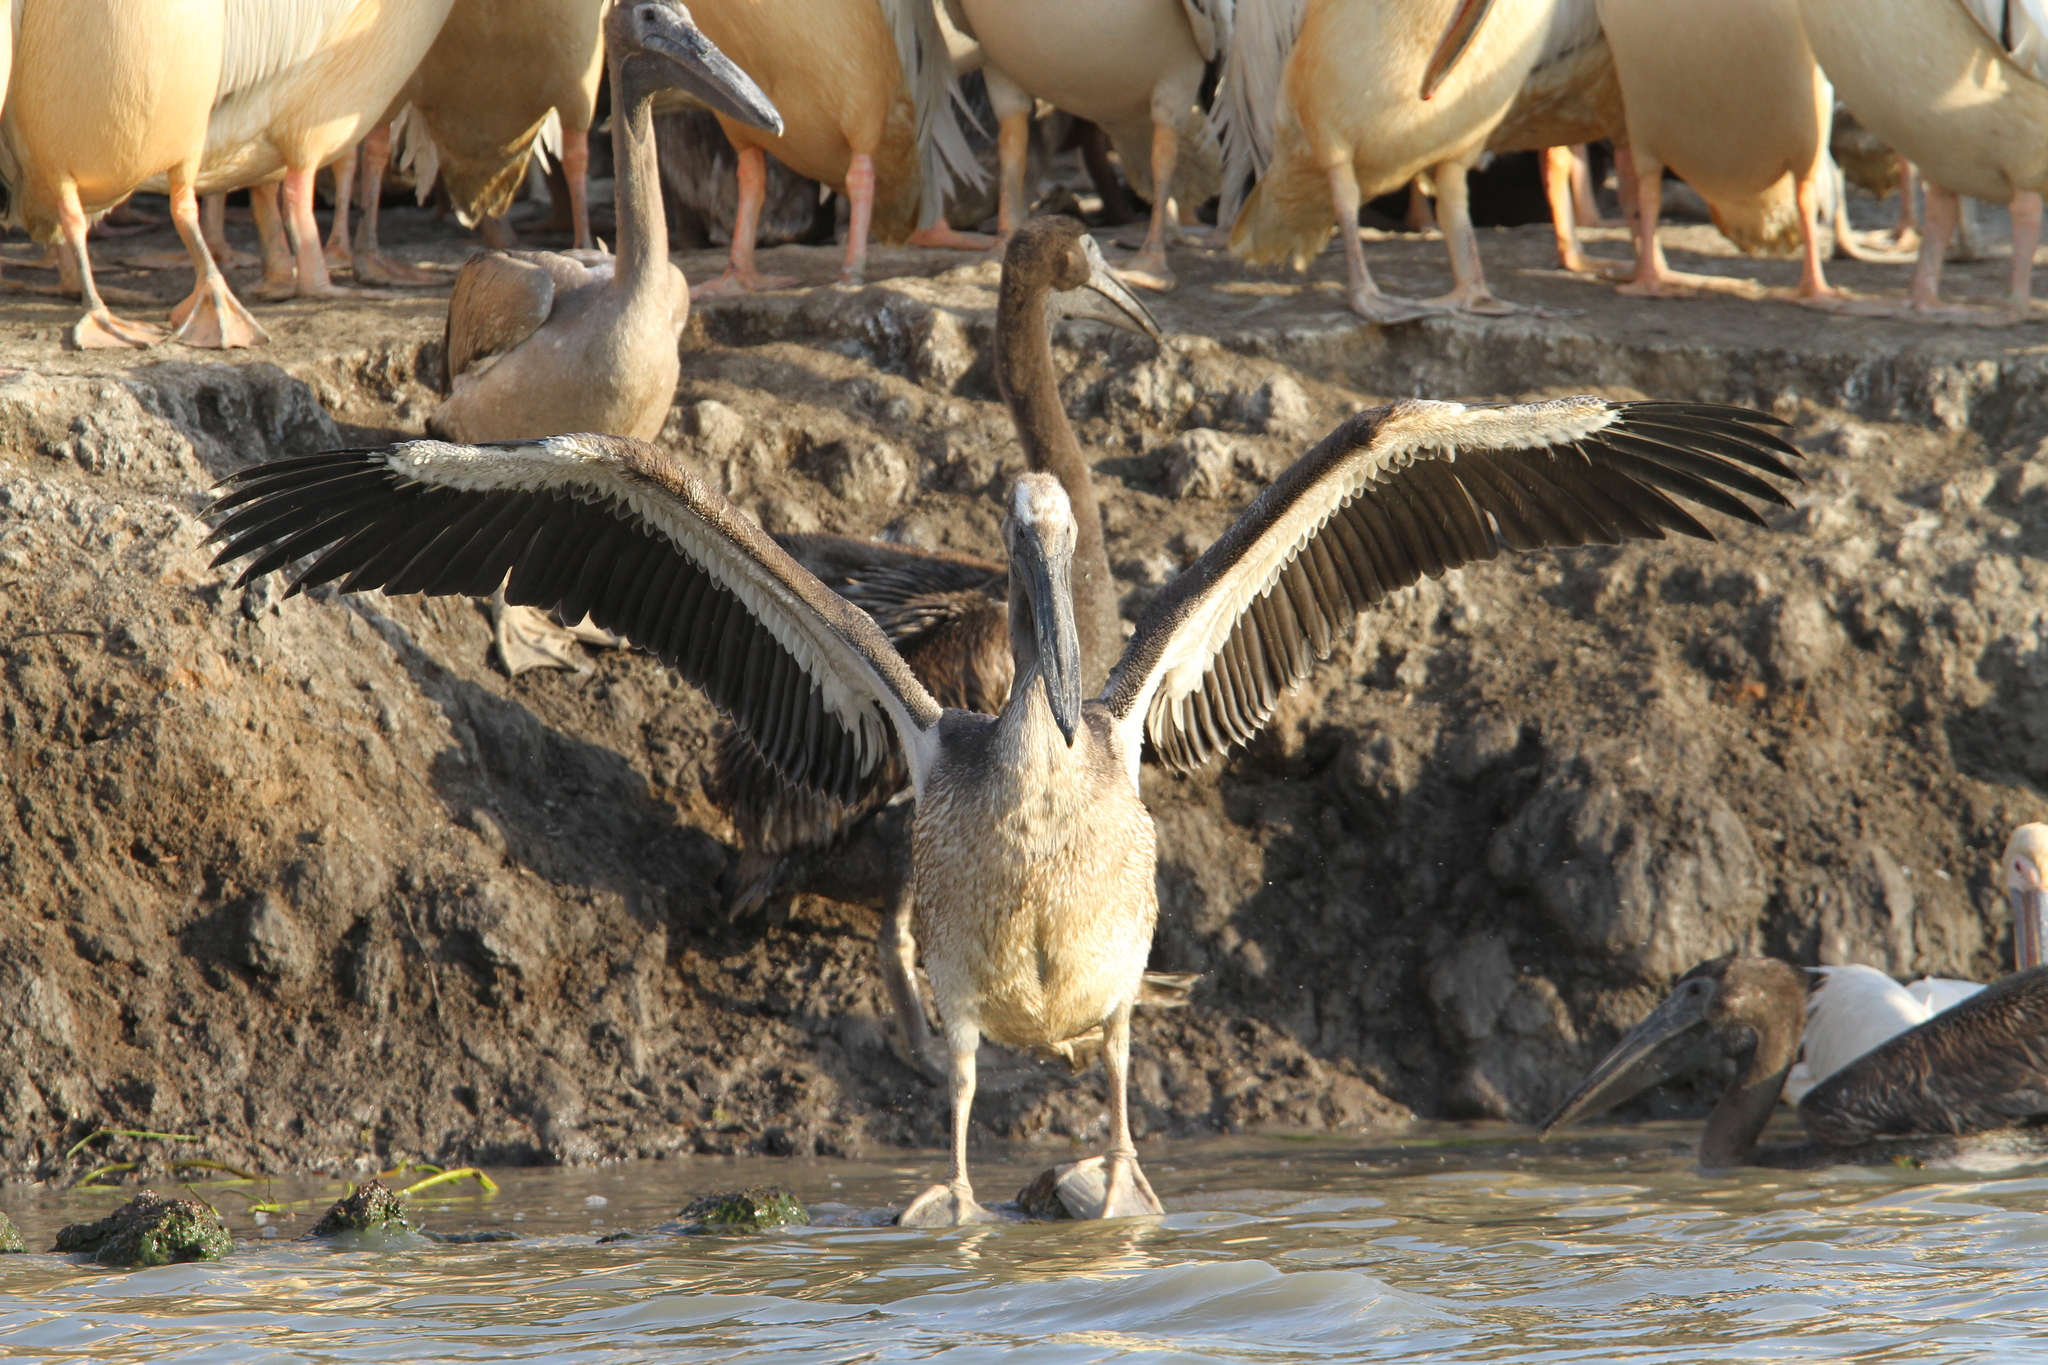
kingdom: Animalia
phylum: Chordata
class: Aves
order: Pelecaniformes
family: Pelecanidae
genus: Pelecanus
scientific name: Pelecanus onocrotalus
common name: Great white pelican
